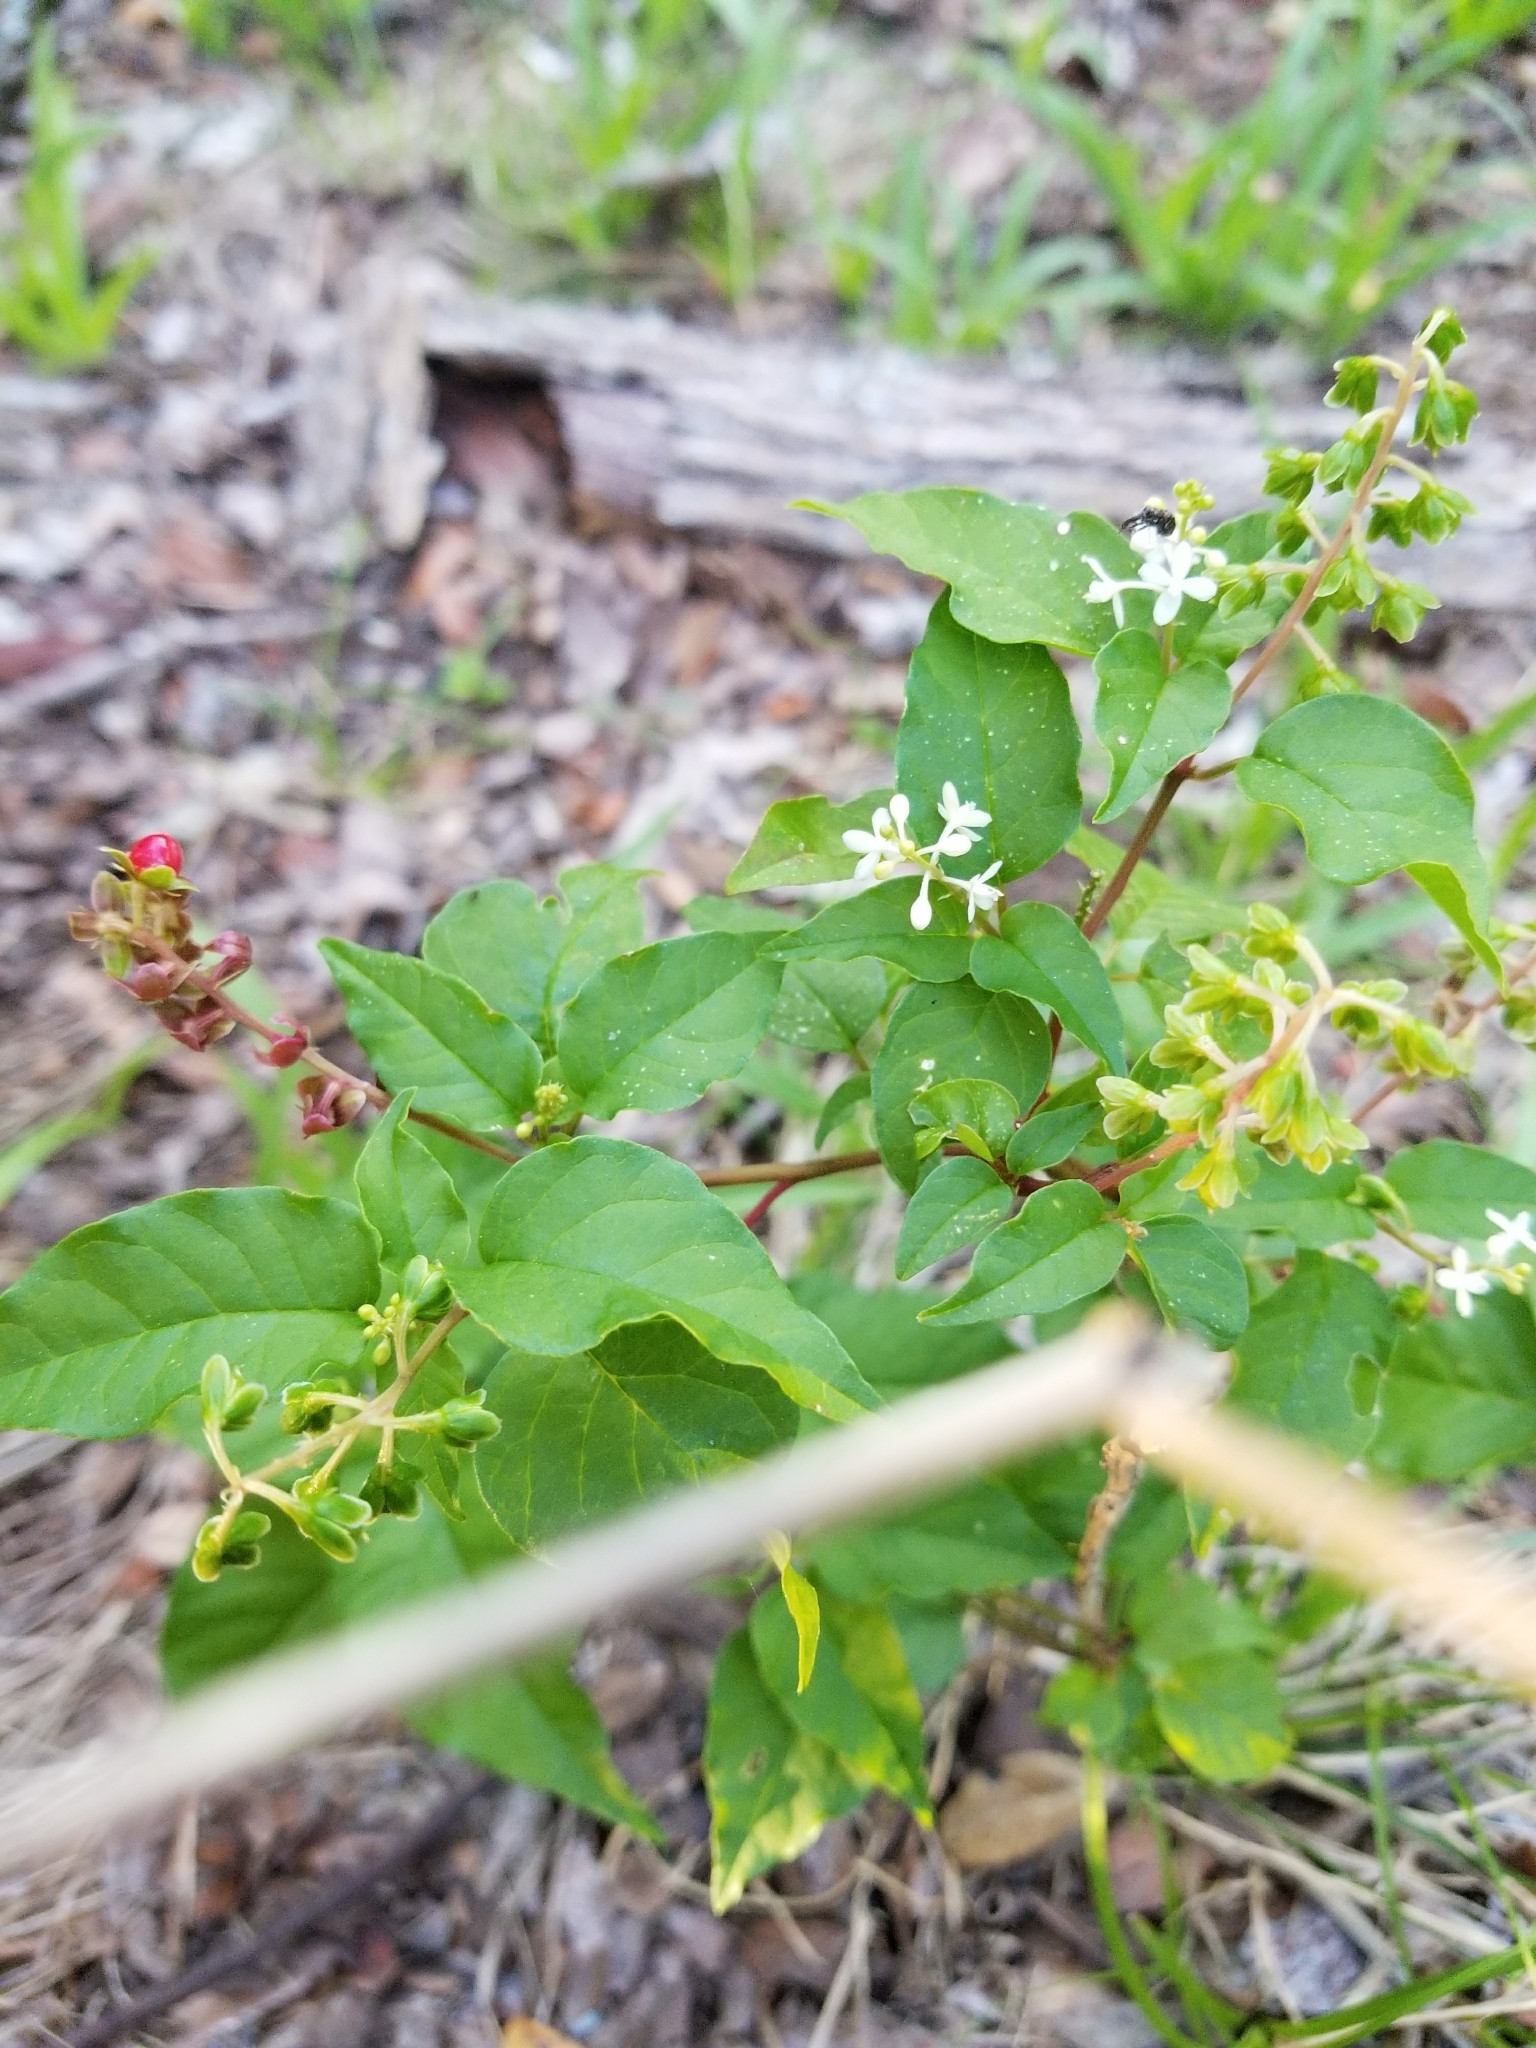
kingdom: Plantae
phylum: Tracheophyta
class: Magnoliopsida
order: Caryophyllales
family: Phytolaccaceae
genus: Rivina
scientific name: Rivina humilis
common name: Rougeplant
